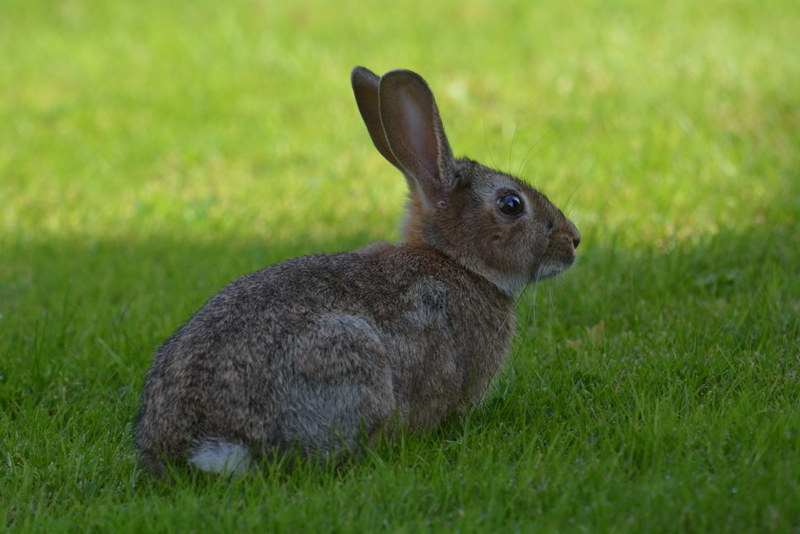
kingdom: Animalia
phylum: Chordata
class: Mammalia
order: Lagomorpha
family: Leporidae
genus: Oryctolagus
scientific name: Oryctolagus cuniculus
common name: European rabbit
